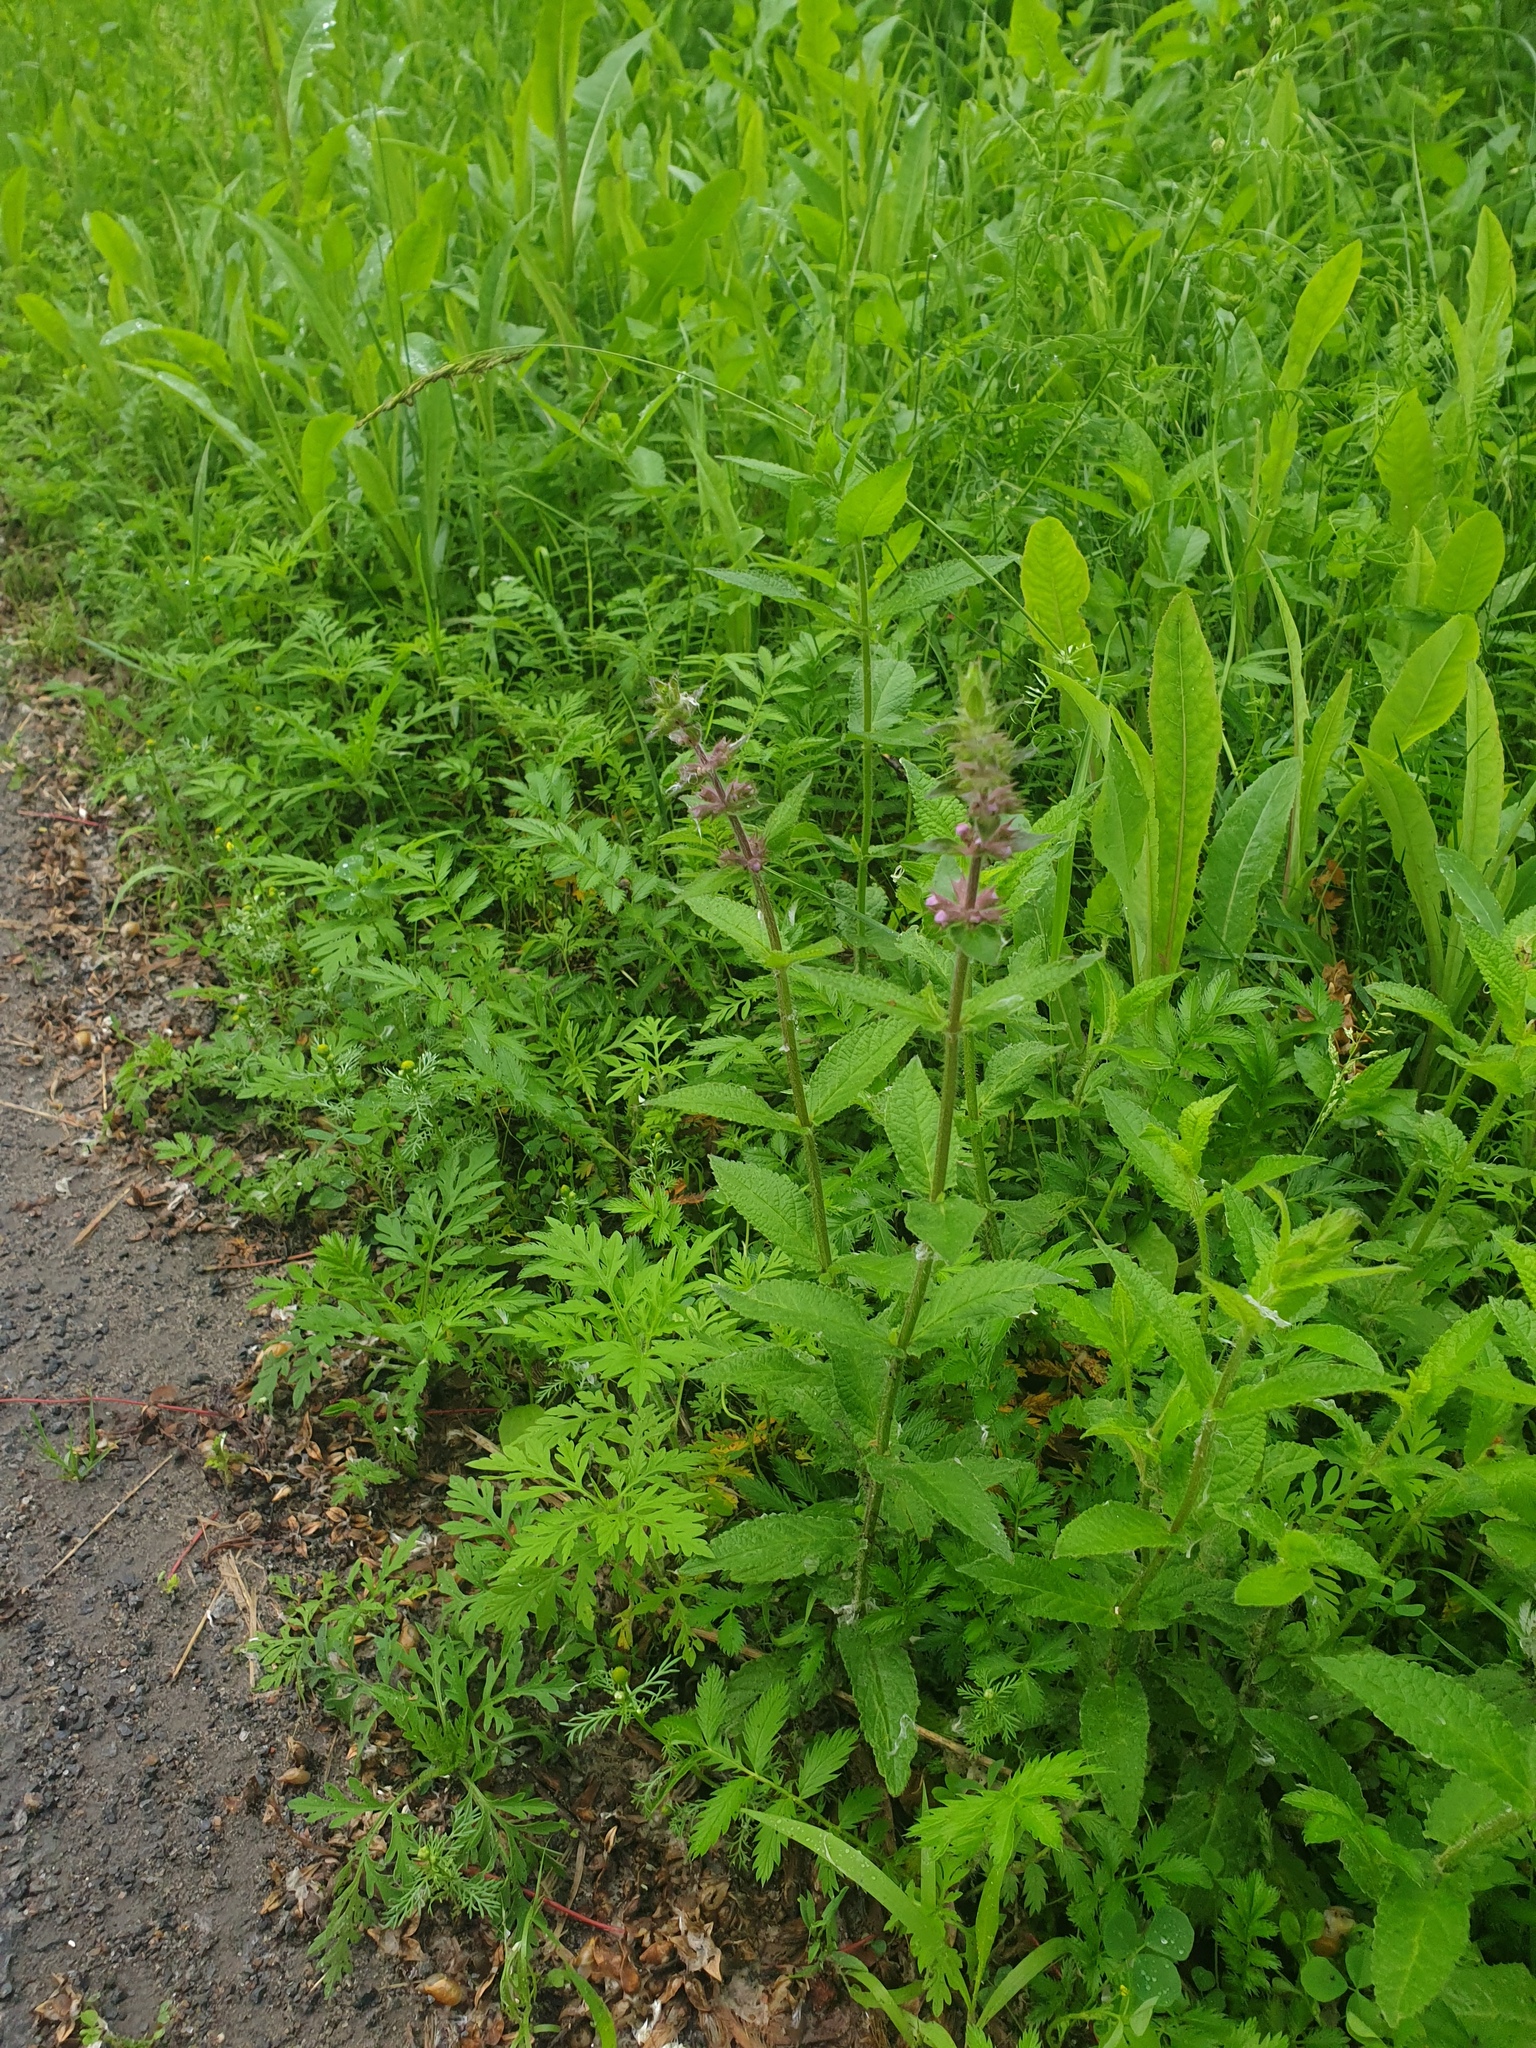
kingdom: Plantae
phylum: Tracheophyta
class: Magnoliopsida
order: Lamiales
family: Lamiaceae
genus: Stachys
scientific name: Stachys palustris
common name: Marsh woundwort
